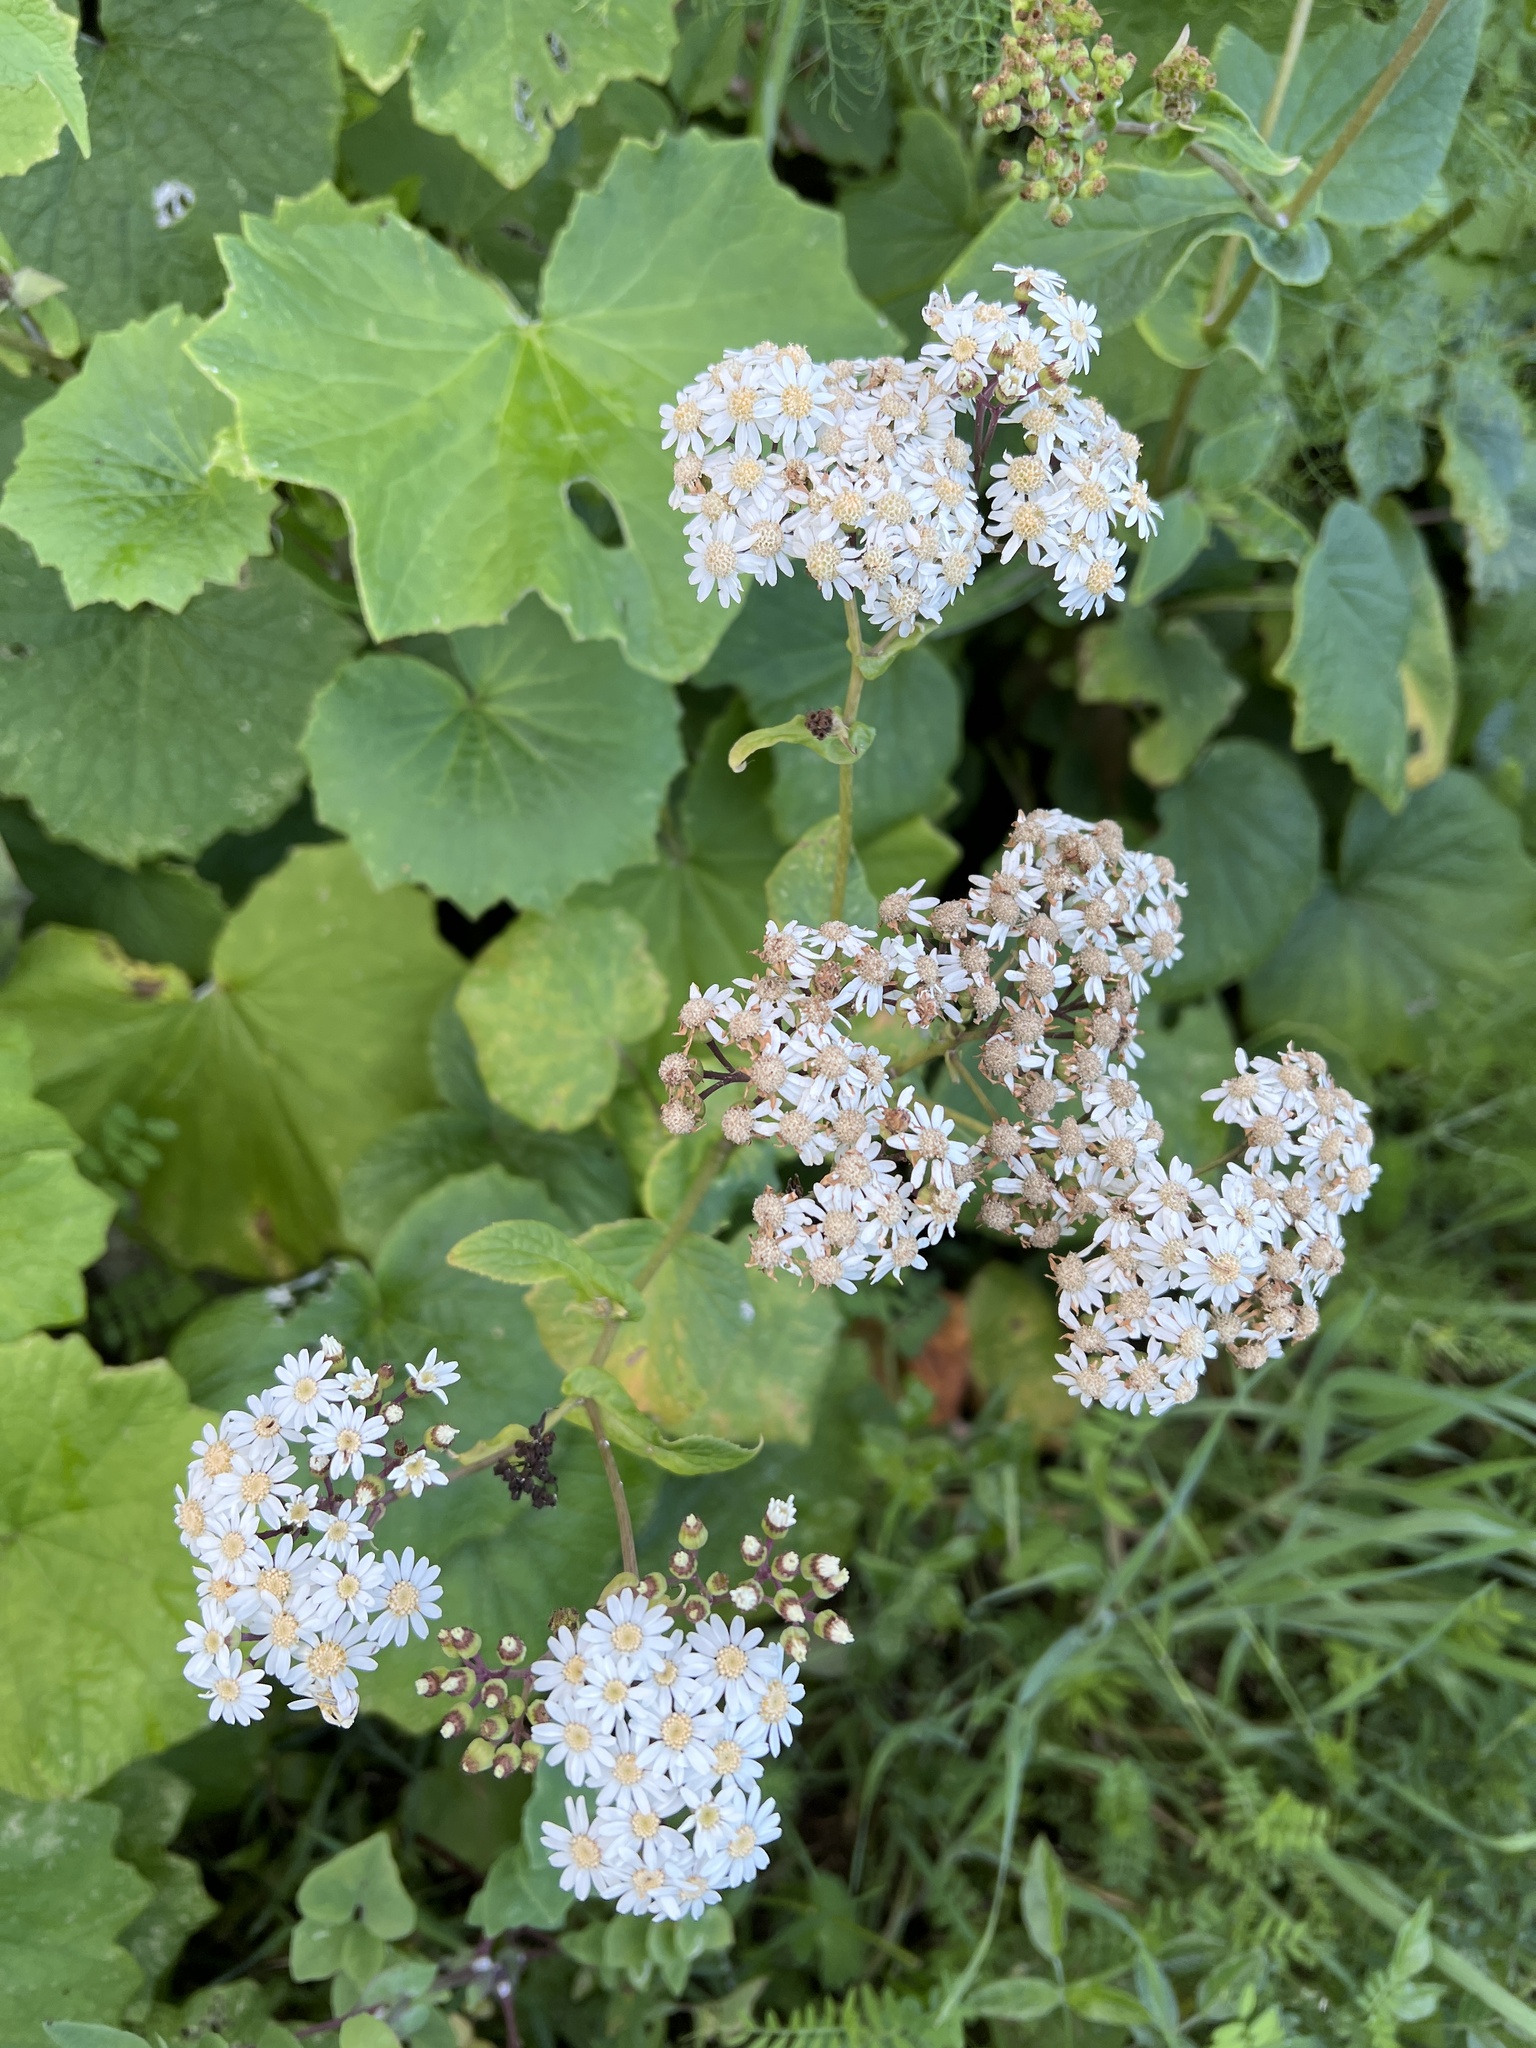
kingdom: Plantae
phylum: Tracheophyta
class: Magnoliopsida
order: Asterales
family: Asteraceae
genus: Pericallis
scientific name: Pericallis murrayi
